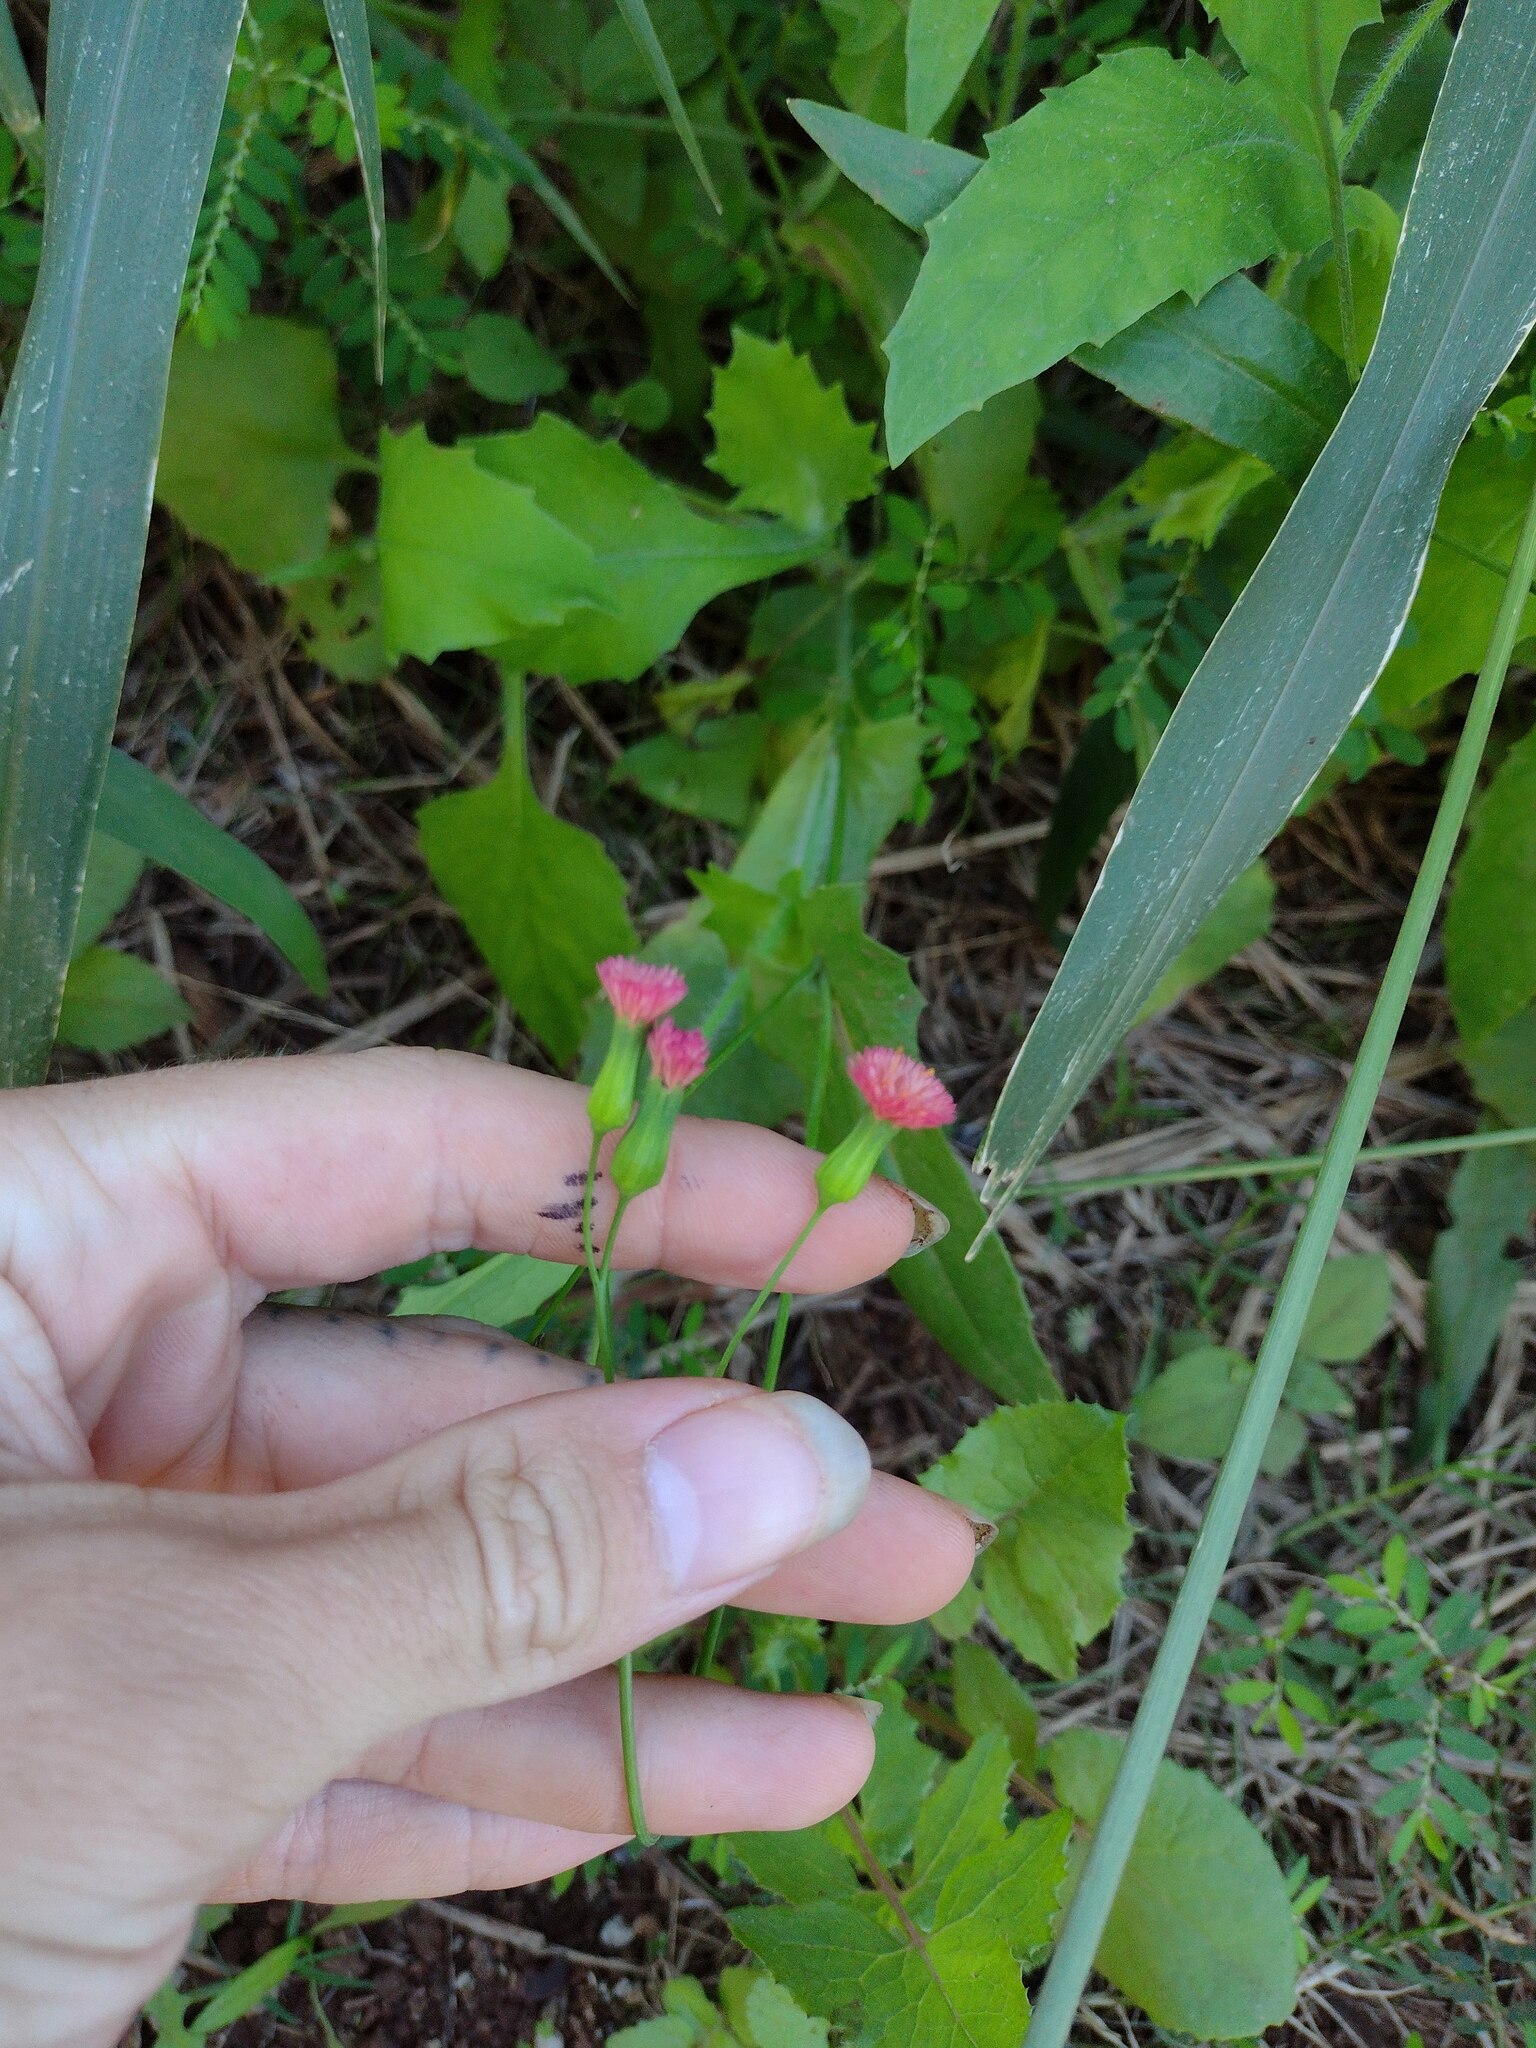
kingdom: Plantae
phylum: Tracheophyta
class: Magnoliopsida
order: Asterales
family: Asteraceae
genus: Emilia
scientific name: Emilia fosbergii
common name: Florida tasselflower
